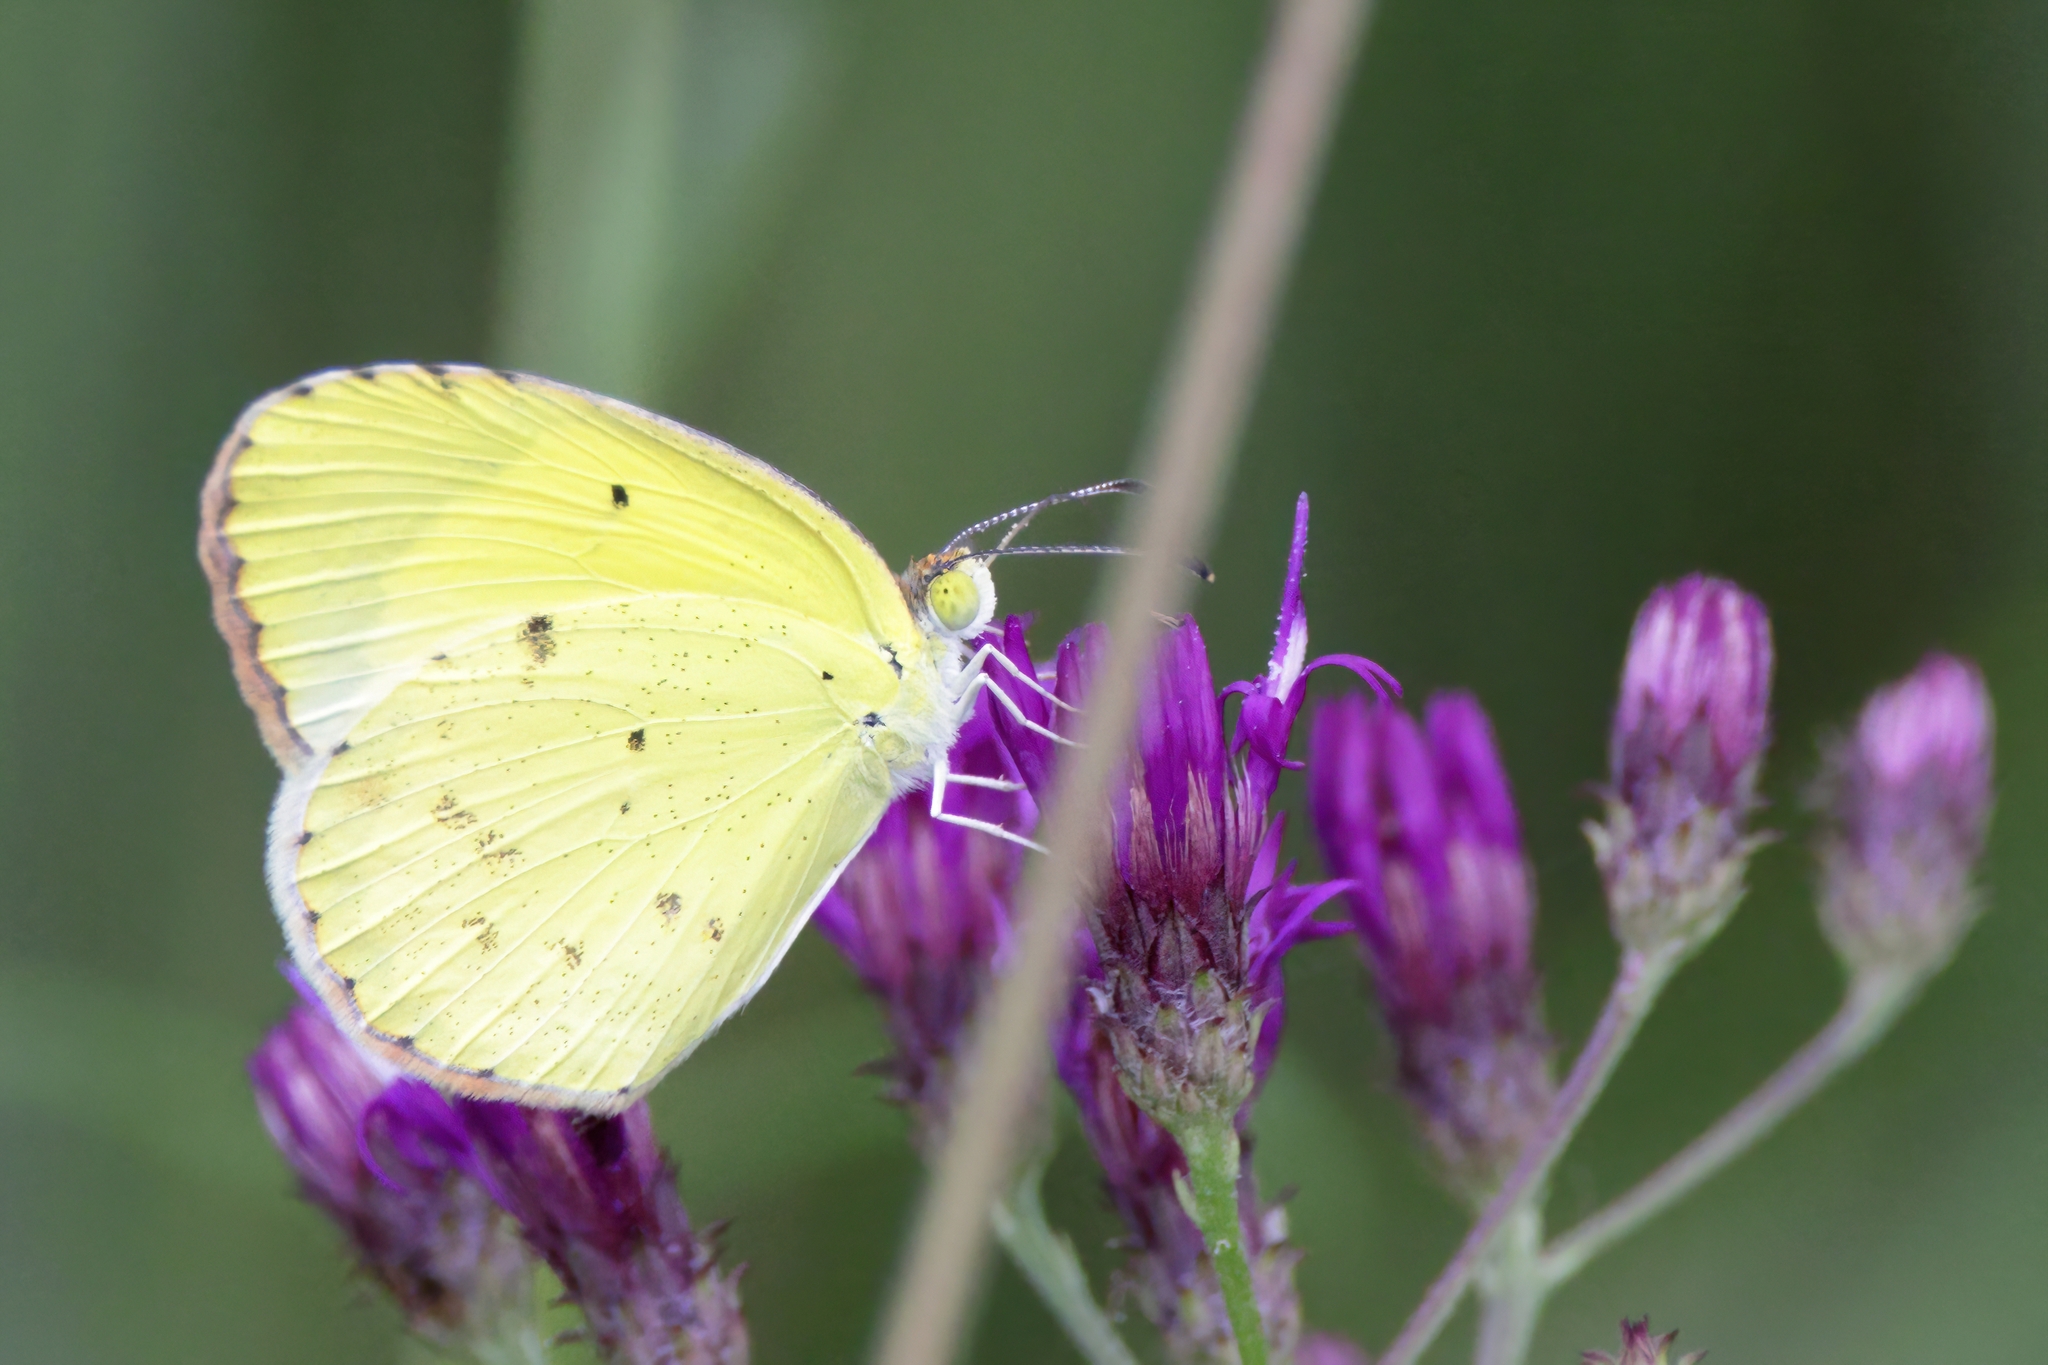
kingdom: Animalia
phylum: Arthropoda
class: Insecta
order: Lepidoptera
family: Pieridae
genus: Pyrisitia
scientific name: Pyrisitia lisa
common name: Little yellow
